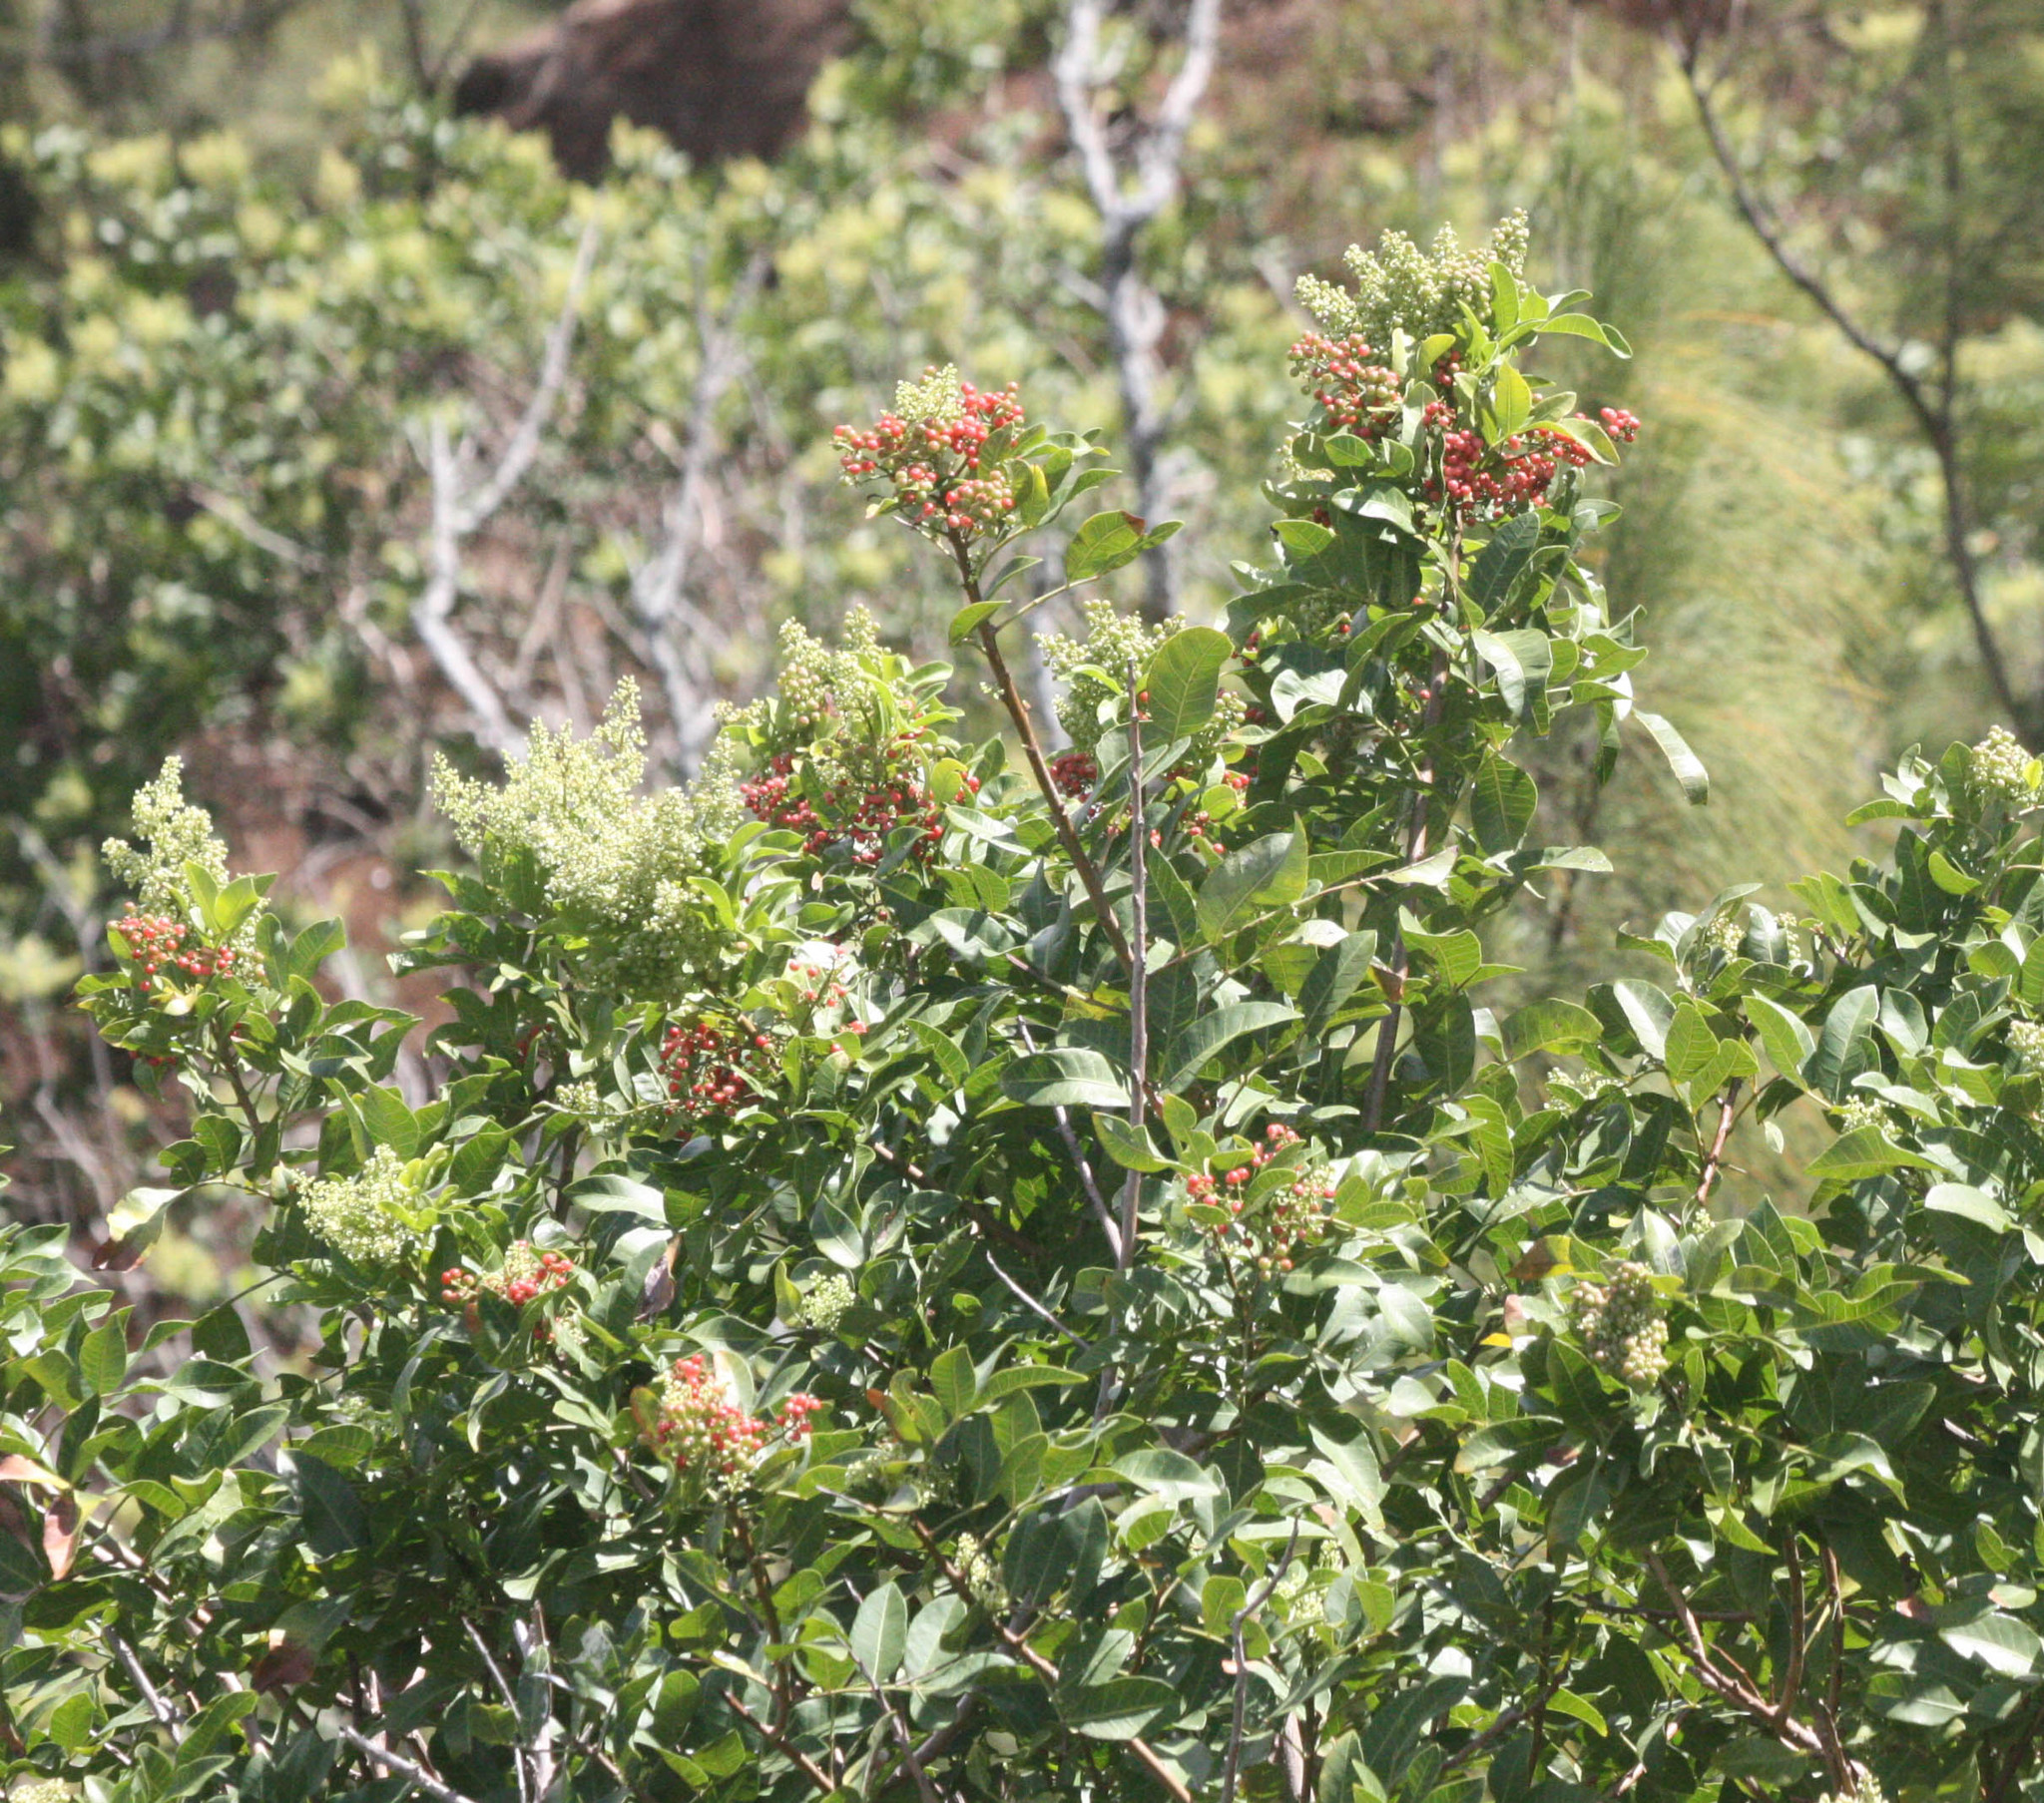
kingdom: Plantae
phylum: Tracheophyta
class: Magnoliopsida
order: Sapindales
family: Anacardiaceae
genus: Schinus
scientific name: Schinus terebinthifolia
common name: Brazilian peppertree
